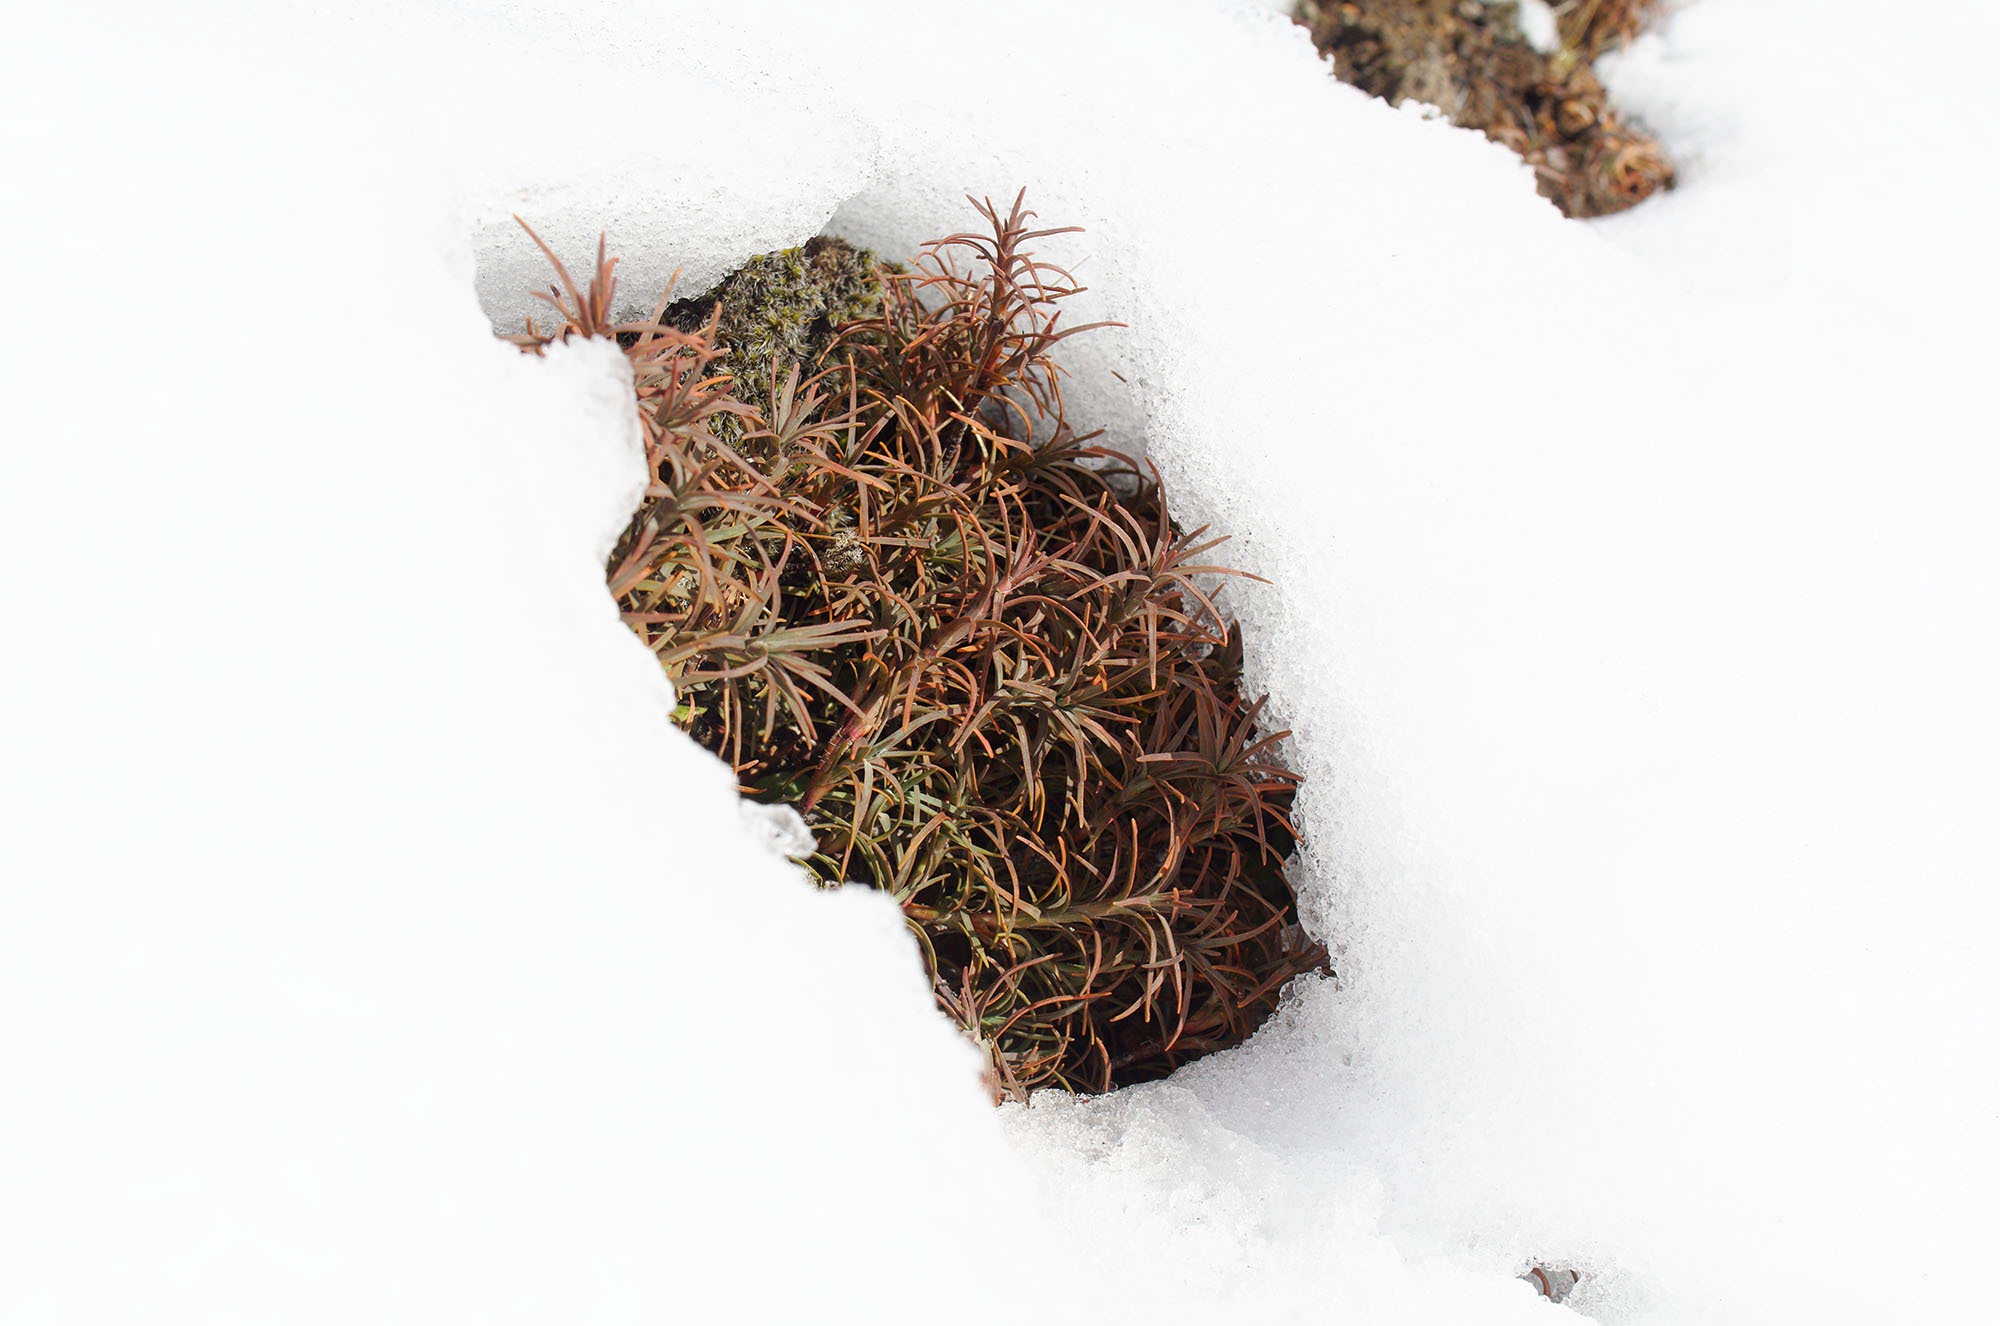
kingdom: Plantae
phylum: Tracheophyta
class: Magnoliopsida
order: Ericales
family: Ericaceae
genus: Dracophyllum
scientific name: Dracophyllum recurvum
